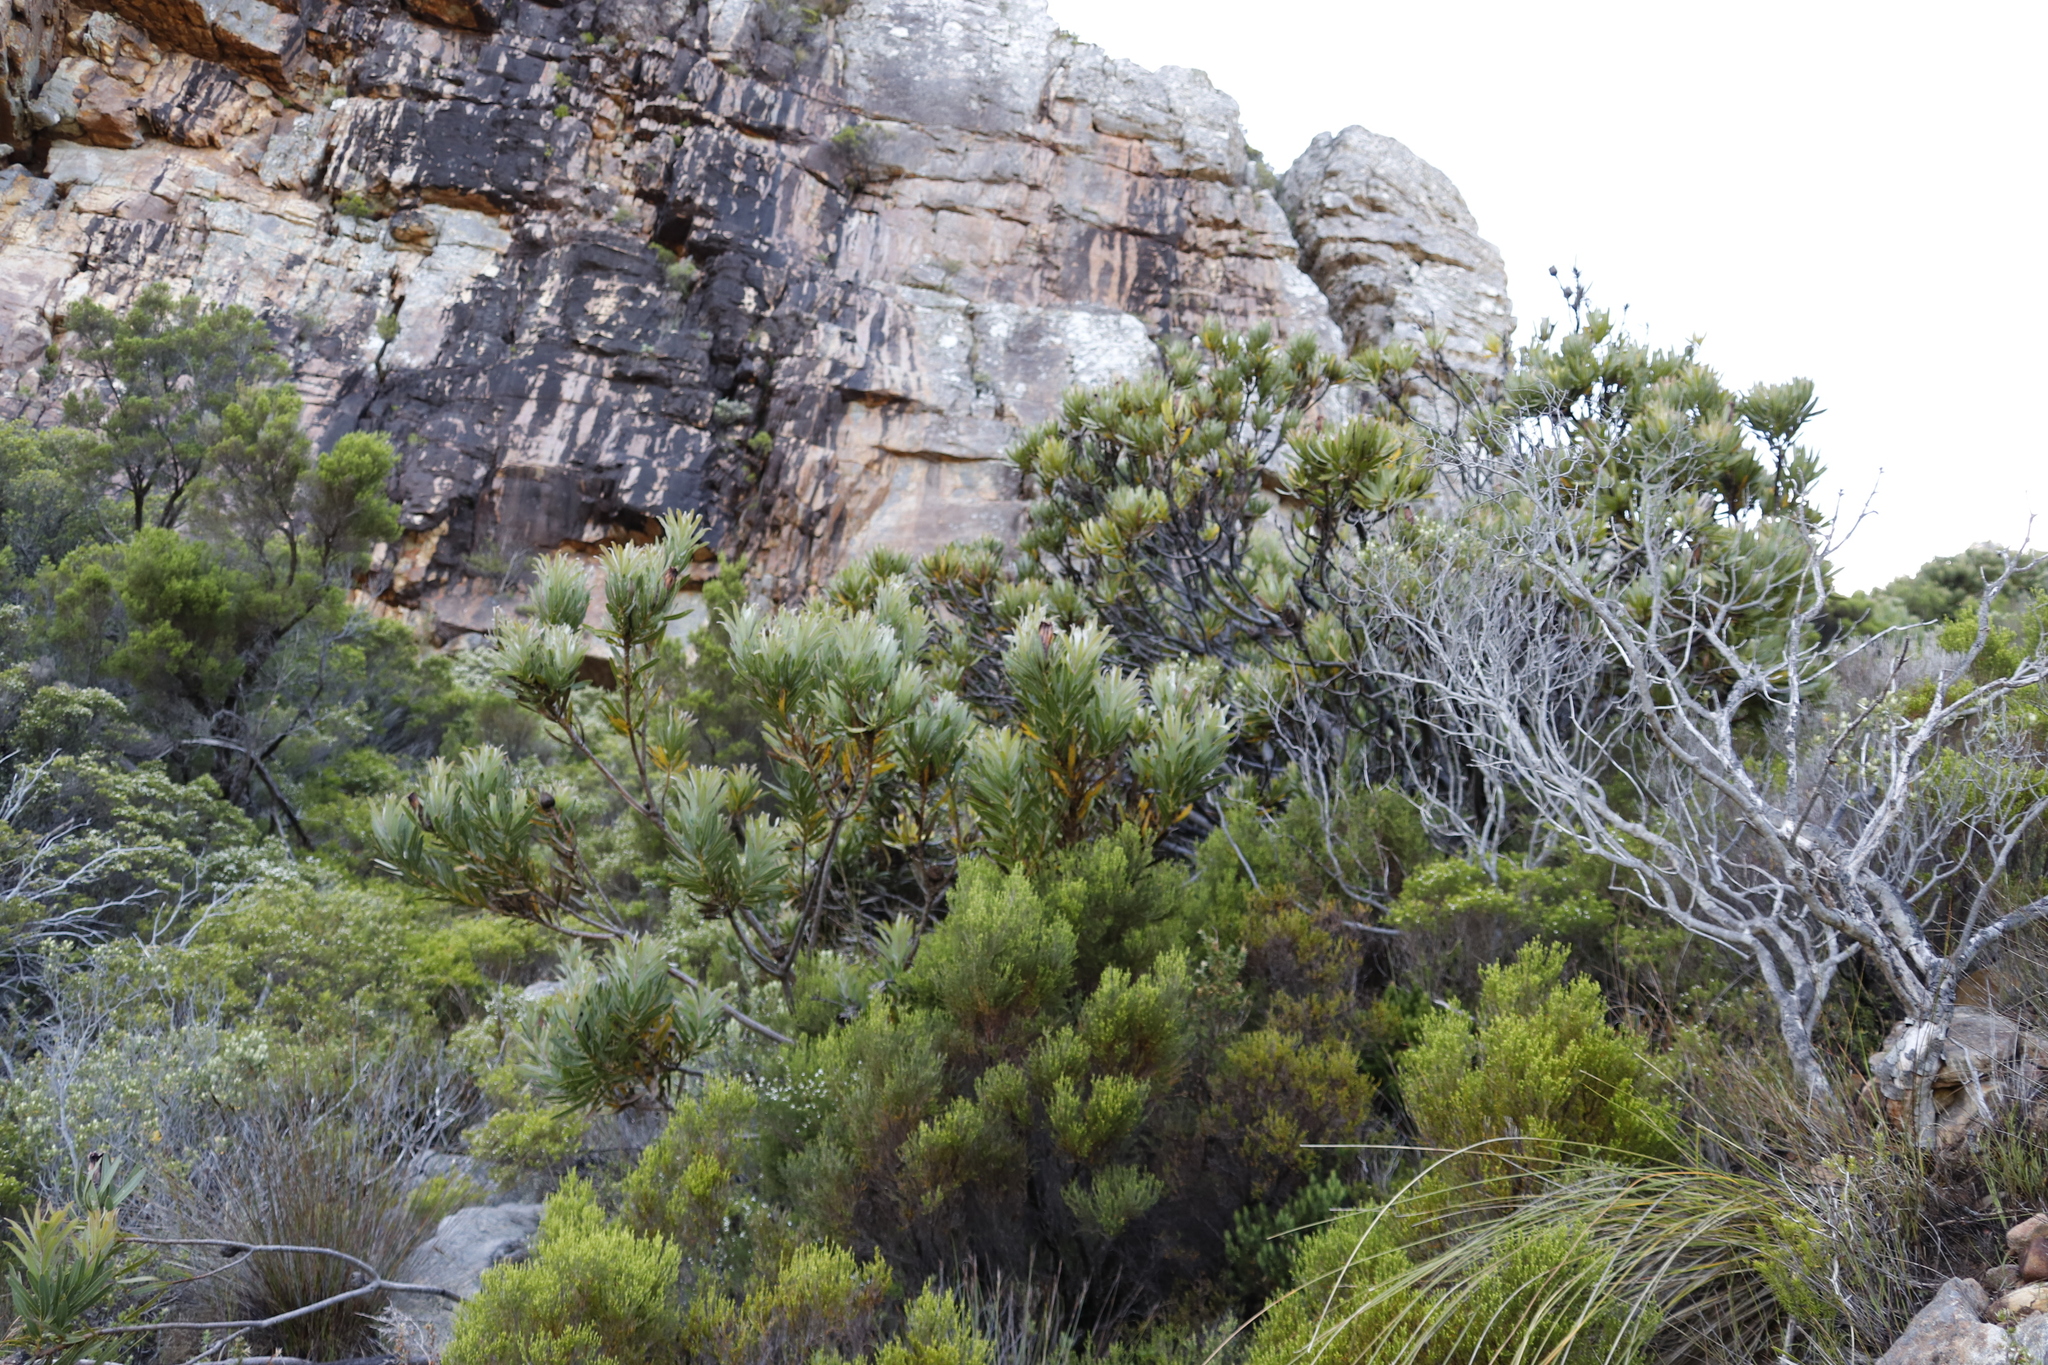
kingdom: Plantae
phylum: Tracheophyta
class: Magnoliopsida
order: Proteales
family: Proteaceae
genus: Protea
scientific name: Protea lepidocarpodendron
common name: Black-bearded protea
